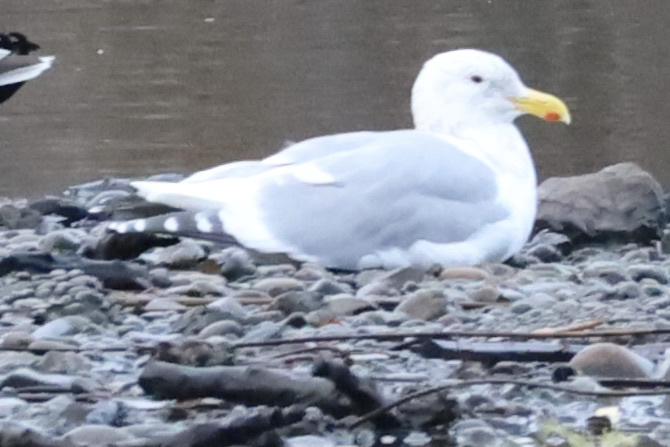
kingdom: Animalia
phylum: Chordata
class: Aves
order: Charadriiformes
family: Laridae
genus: Larus
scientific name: Larus
